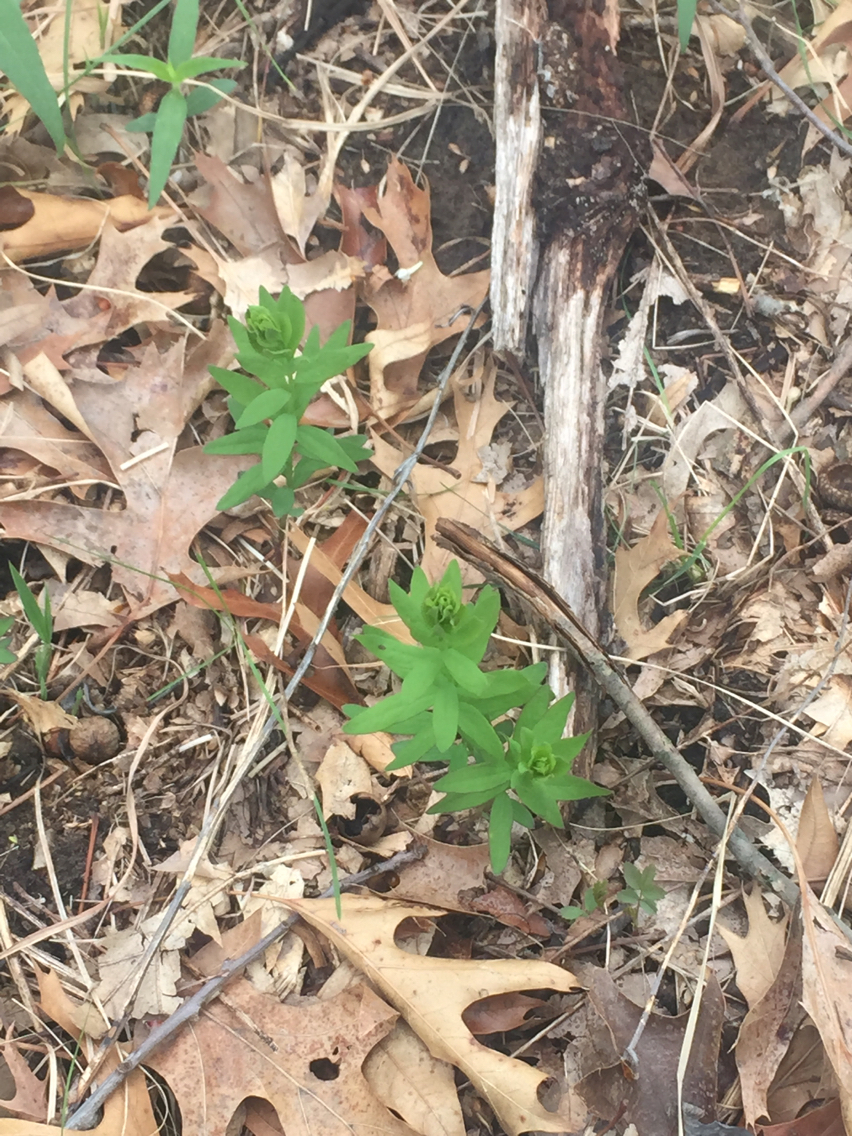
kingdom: Plantae
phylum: Tracheophyta
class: Magnoliopsida
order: Santalales
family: Comandraceae
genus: Comandra
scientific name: Comandra umbellata
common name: Bastard toadflax
